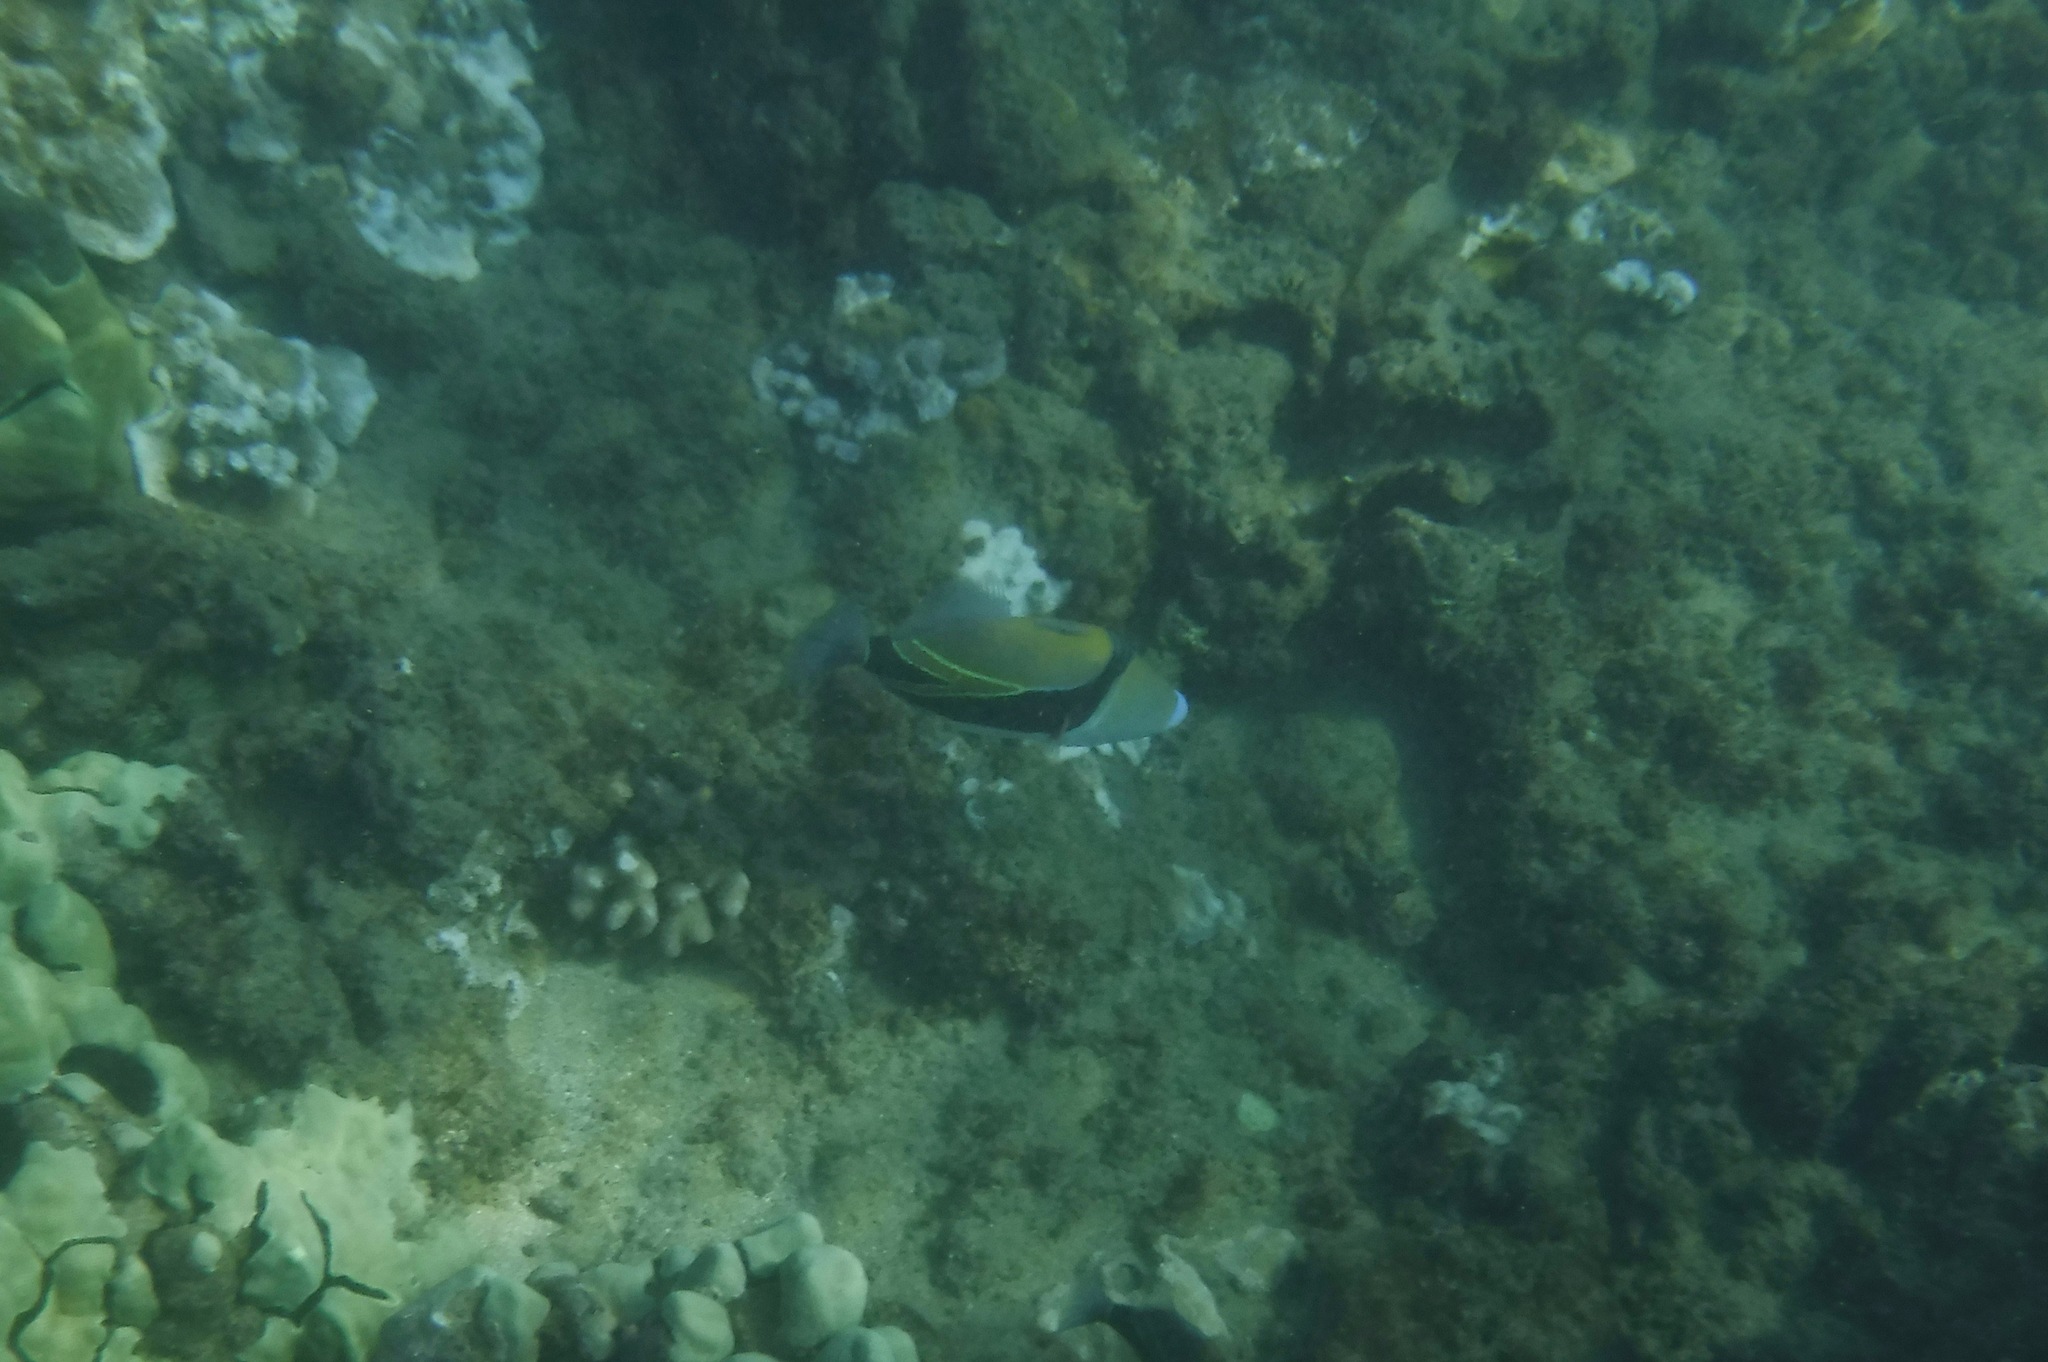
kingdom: Animalia
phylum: Chordata
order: Tetraodontiformes
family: Balistidae
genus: Rhinecanthus
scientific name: Rhinecanthus rectangulus
